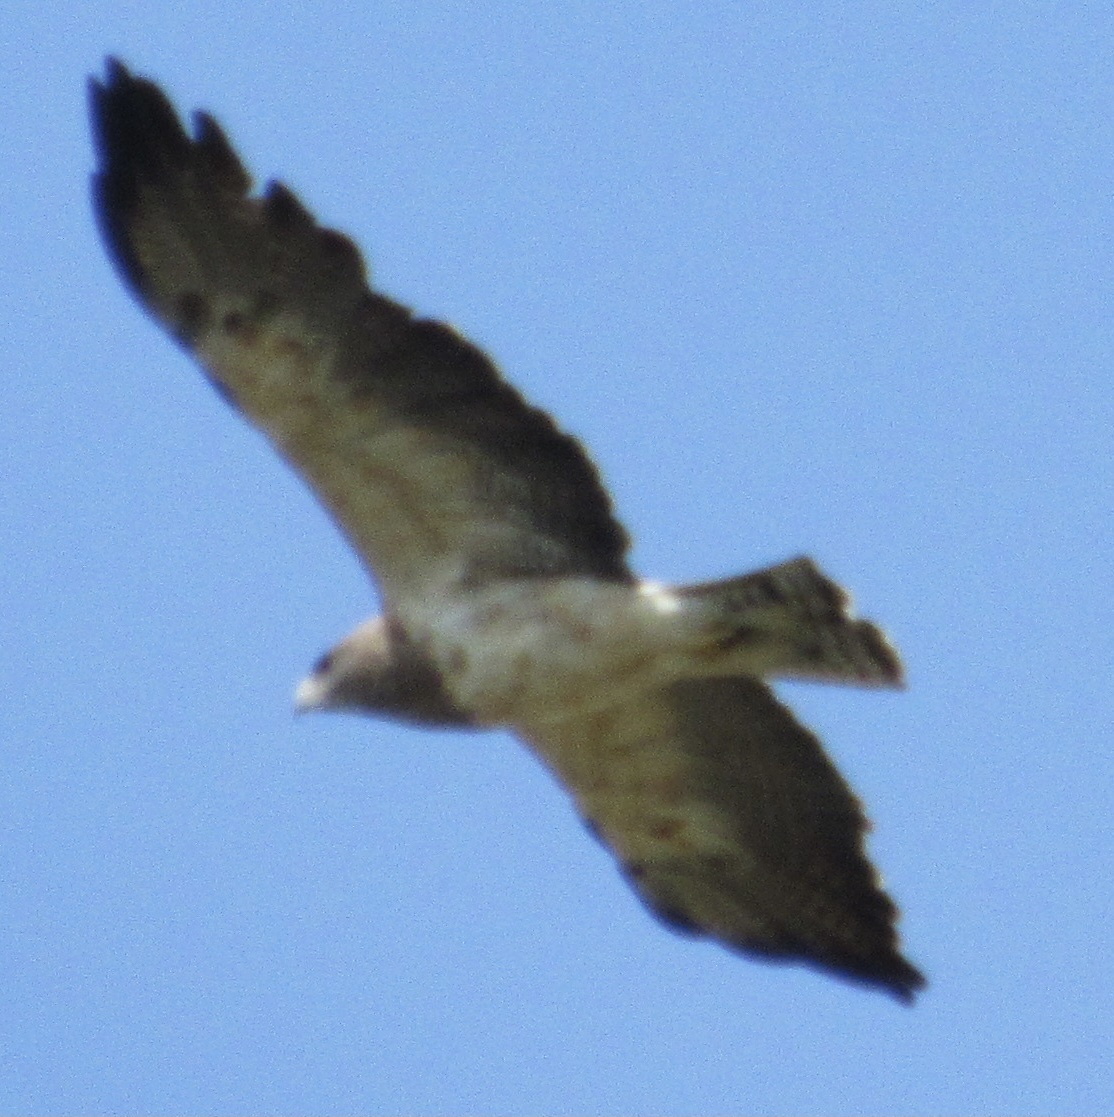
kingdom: Animalia
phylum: Chordata
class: Aves
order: Accipitriformes
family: Accipitridae
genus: Buteo
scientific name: Buteo swainsoni
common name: Swainson's hawk
